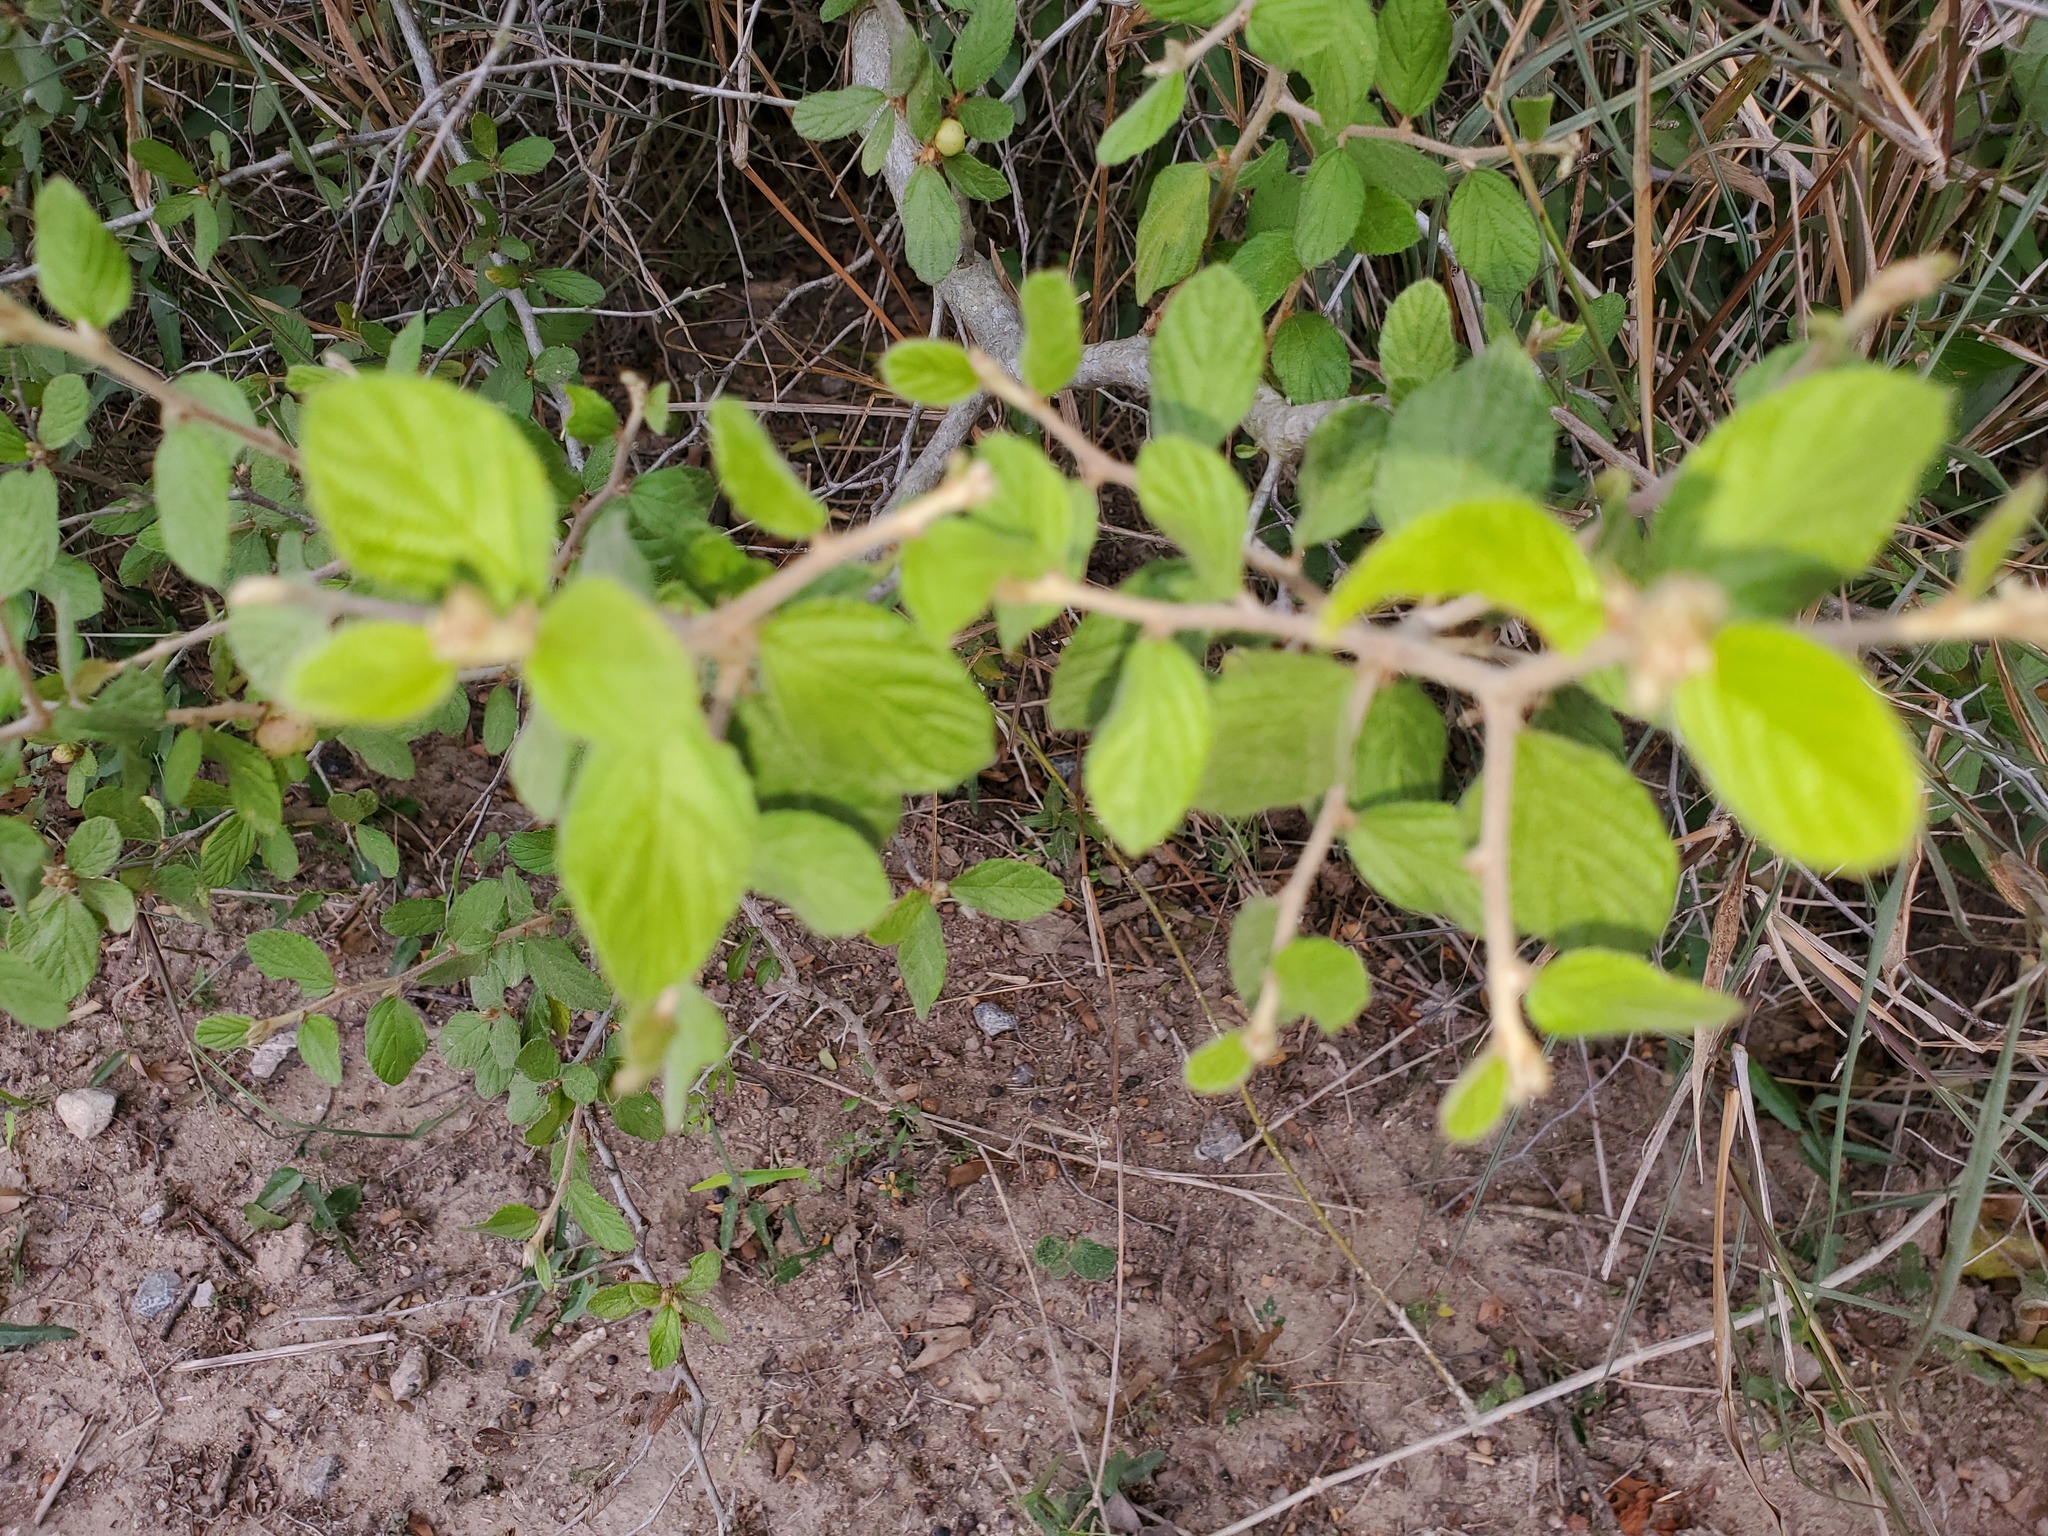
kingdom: Plantae
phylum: Tracheophyta
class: Magnoliopsida
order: Rosales
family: Rhamnaceae
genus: Colubrina
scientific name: Colubrina texensis
